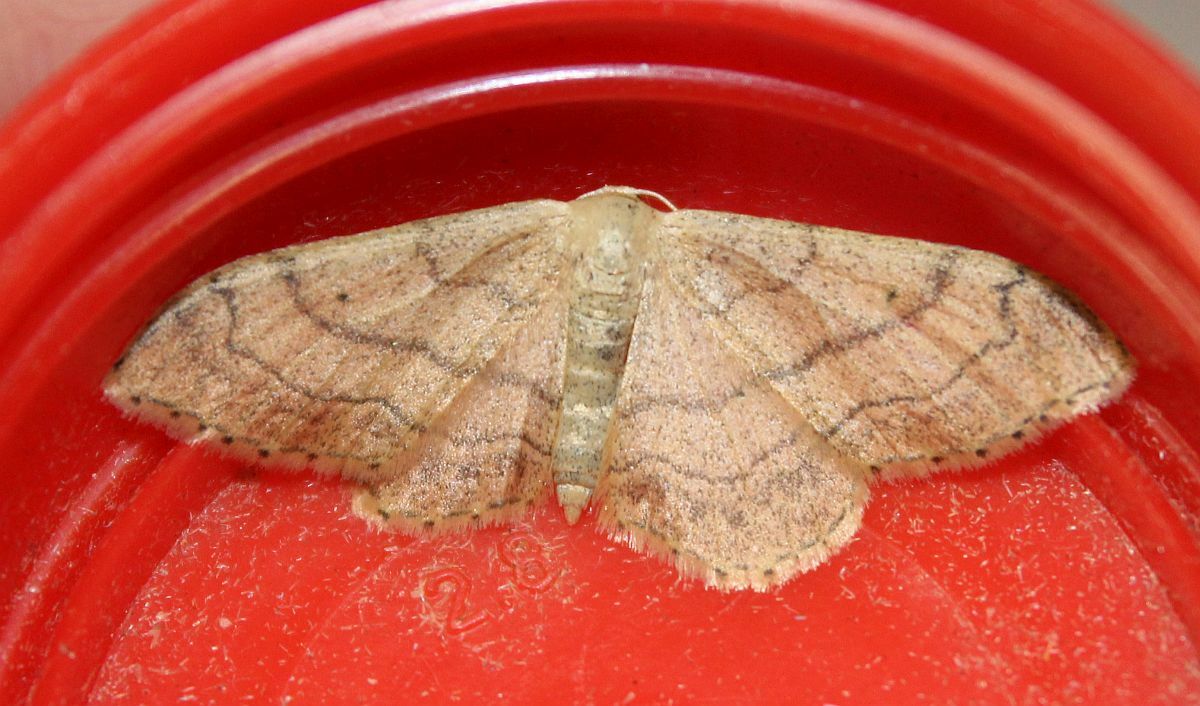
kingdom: Animalia
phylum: Arthropoda
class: Insecta
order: Lepidoptera
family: Geometridae
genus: Idaea
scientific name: Idaea aversata
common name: Riband wave
